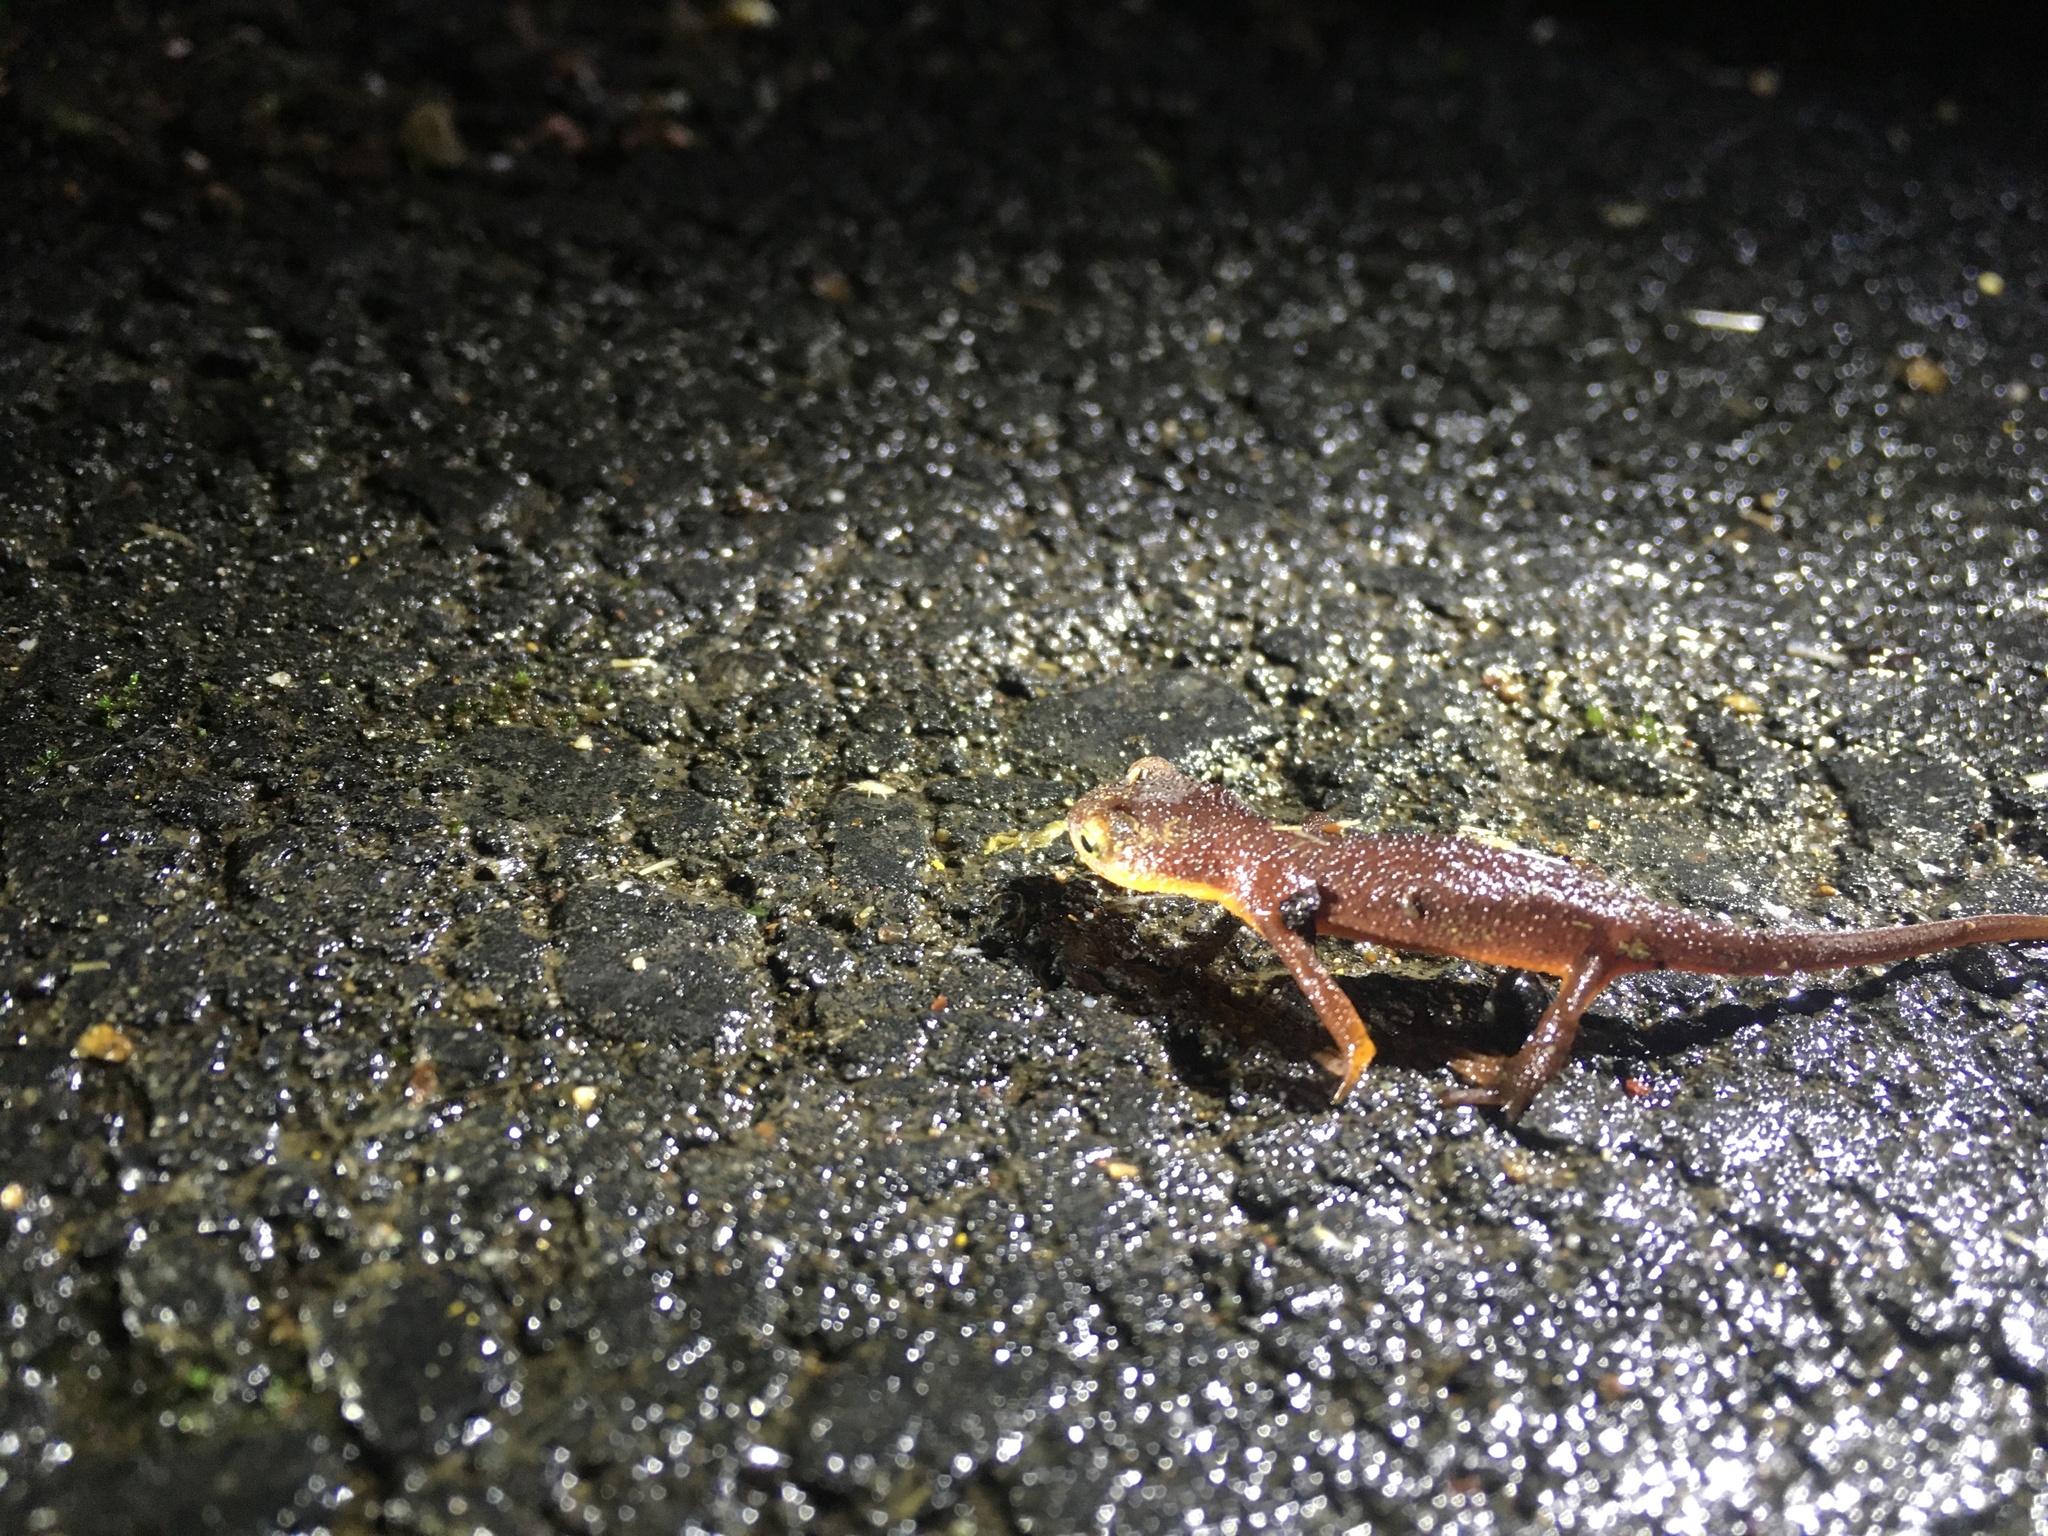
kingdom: Animalia
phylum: Chordata
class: Amphibia
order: Caudata
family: Salamandridae
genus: Taricha
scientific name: Taricha torosa
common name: California newt
